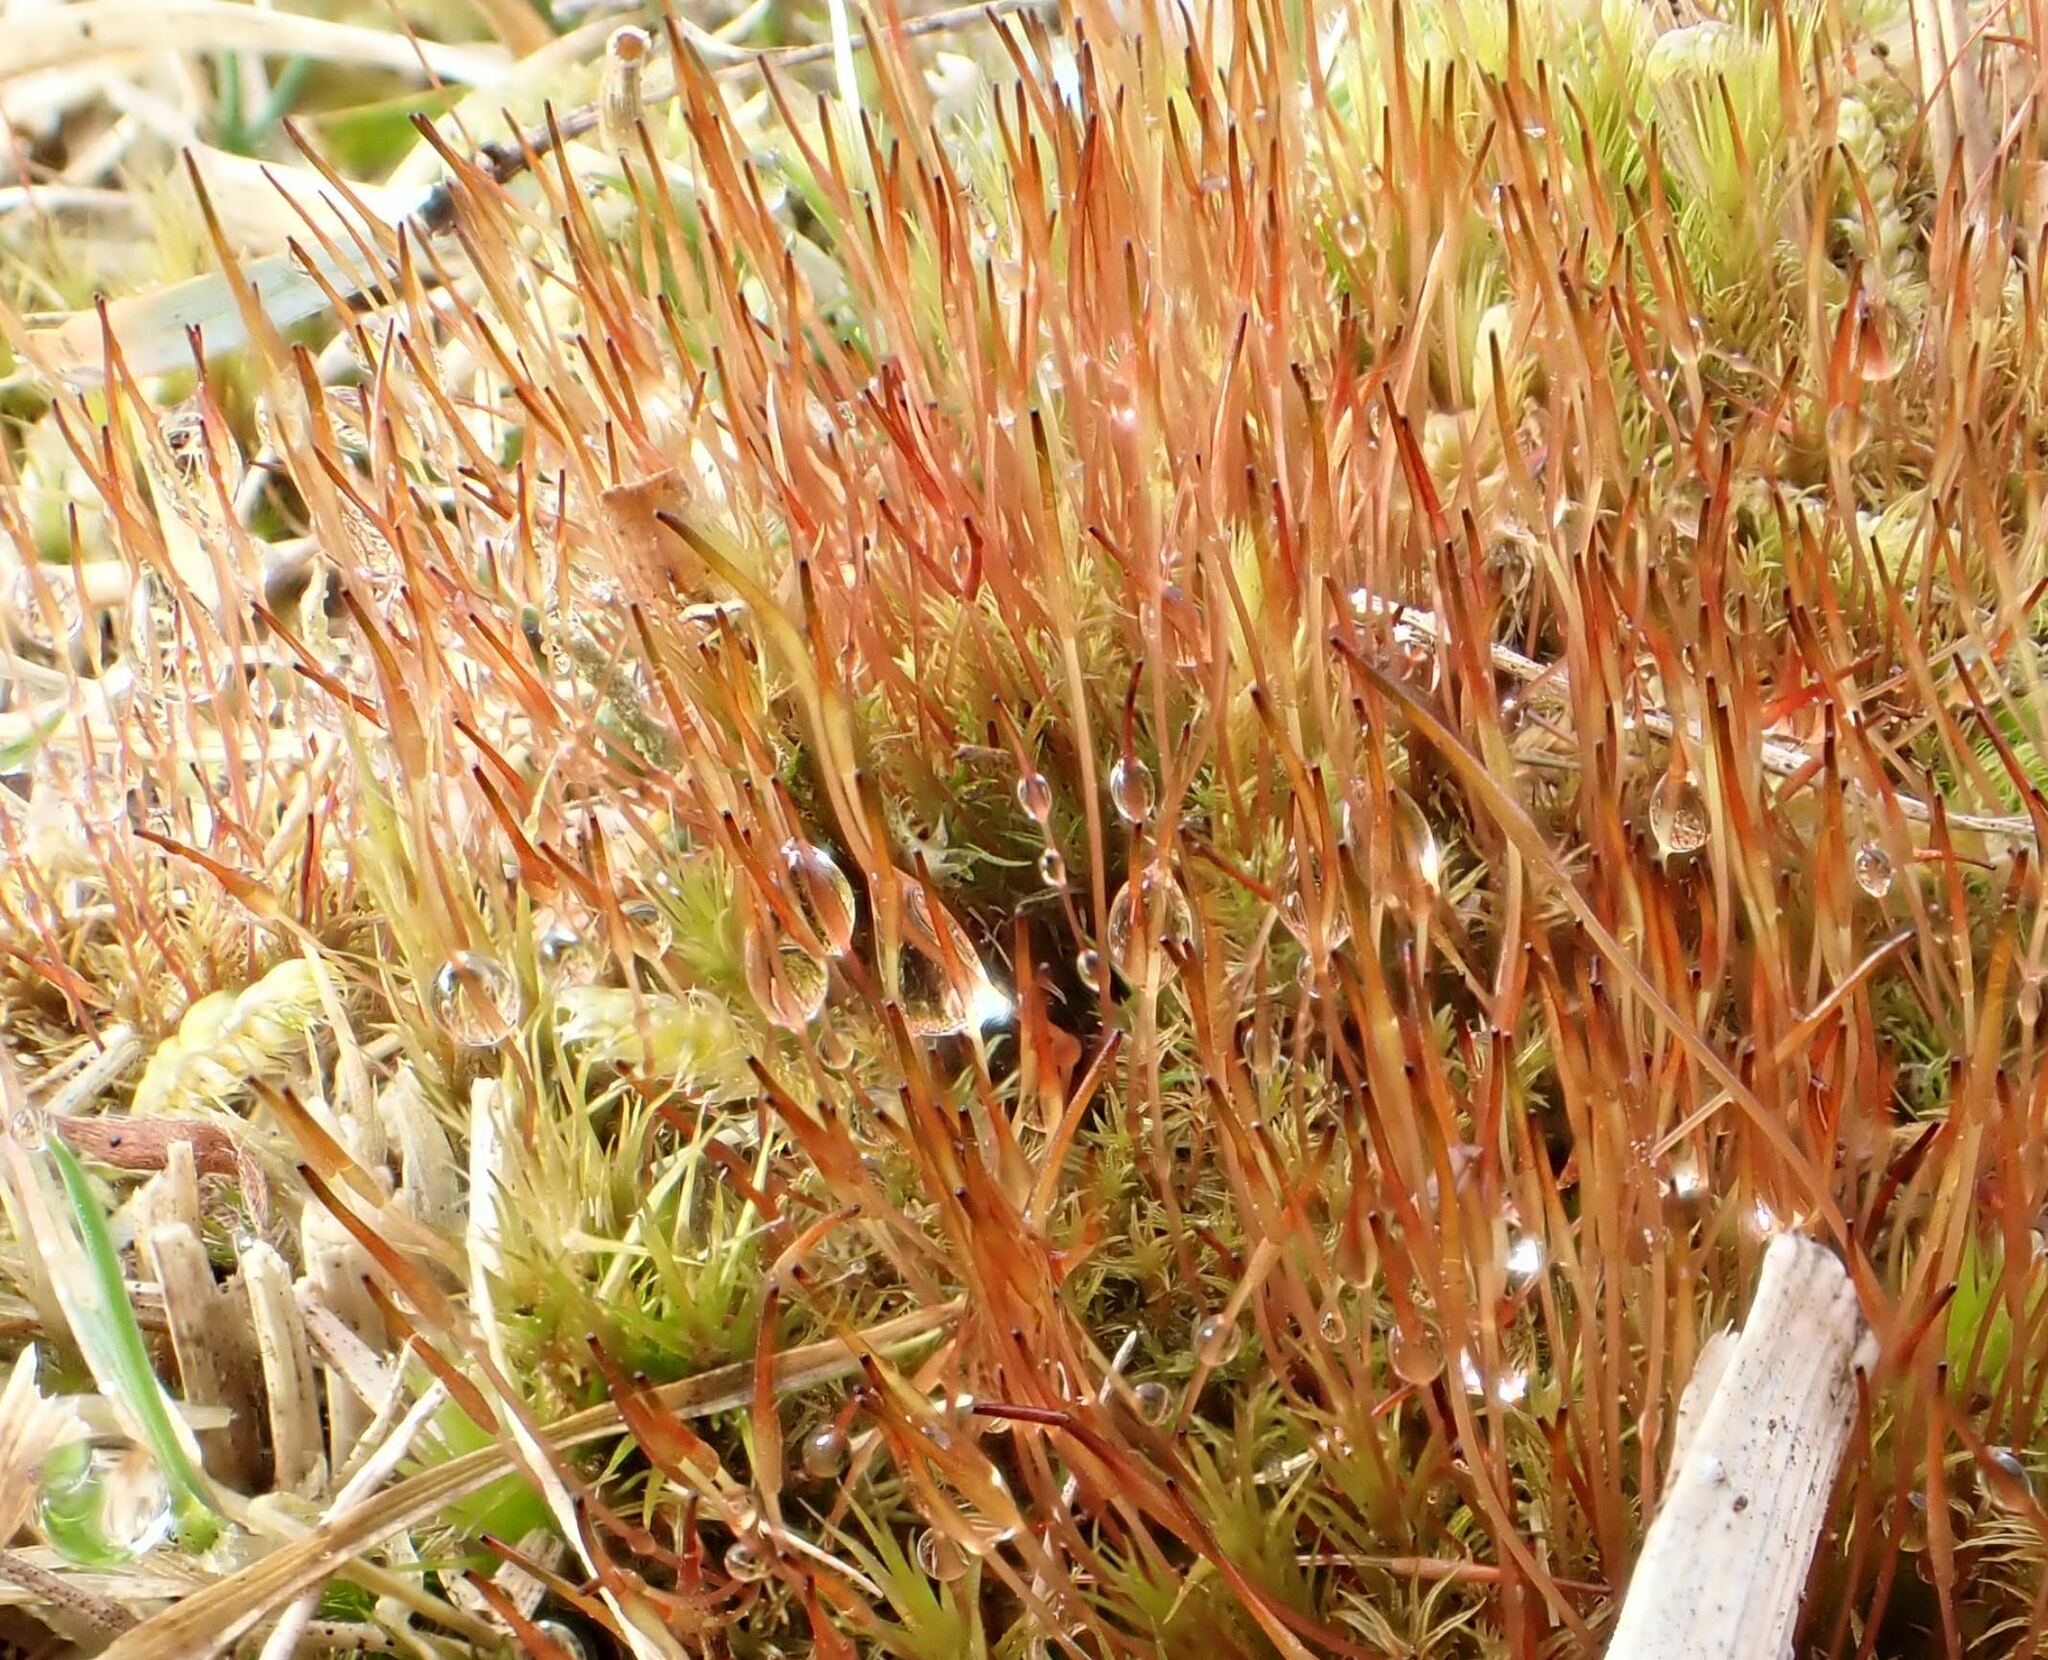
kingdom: Plantae
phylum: Bryophyta
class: Bryopsida
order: Dicranales
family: Ditrichaceae
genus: Ceratodon
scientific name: Ceratodon purpureus
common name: Redshank
